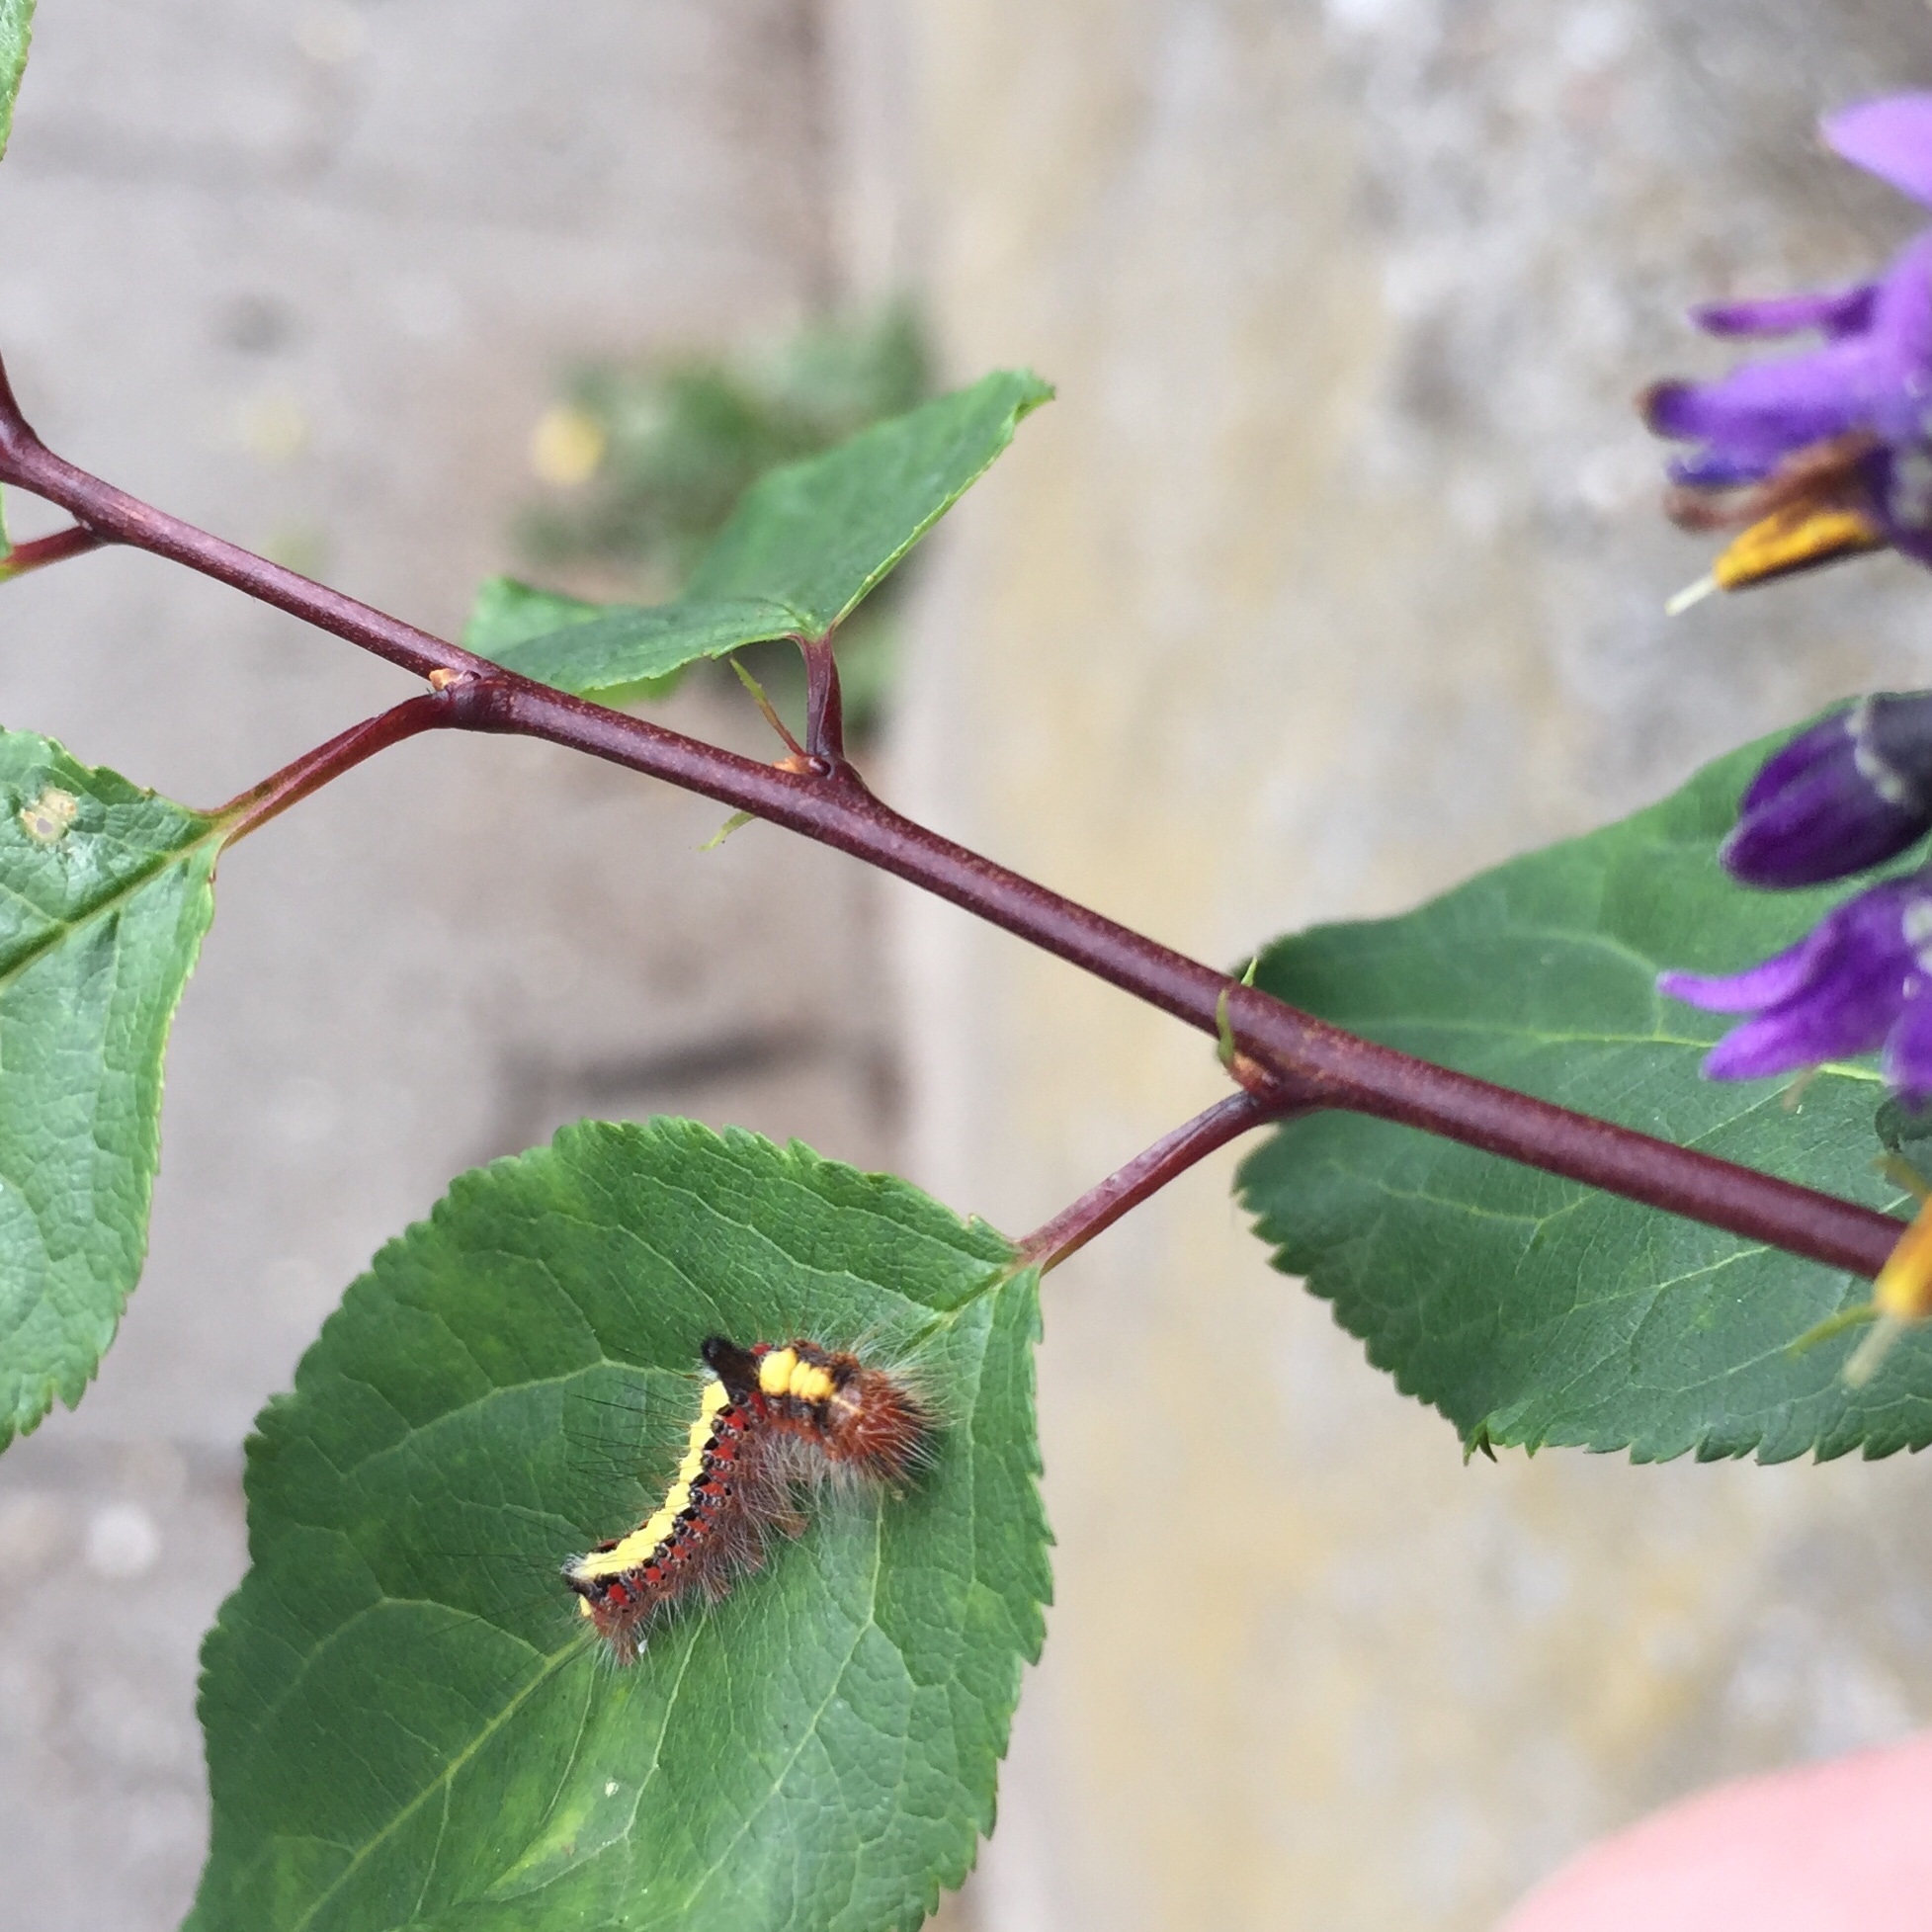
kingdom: Animalia
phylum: Arthropoda
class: Insecta
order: Lepidoptera
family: Noctuidae
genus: Acronicta
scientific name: Acronicta psi
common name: Grey dagger
